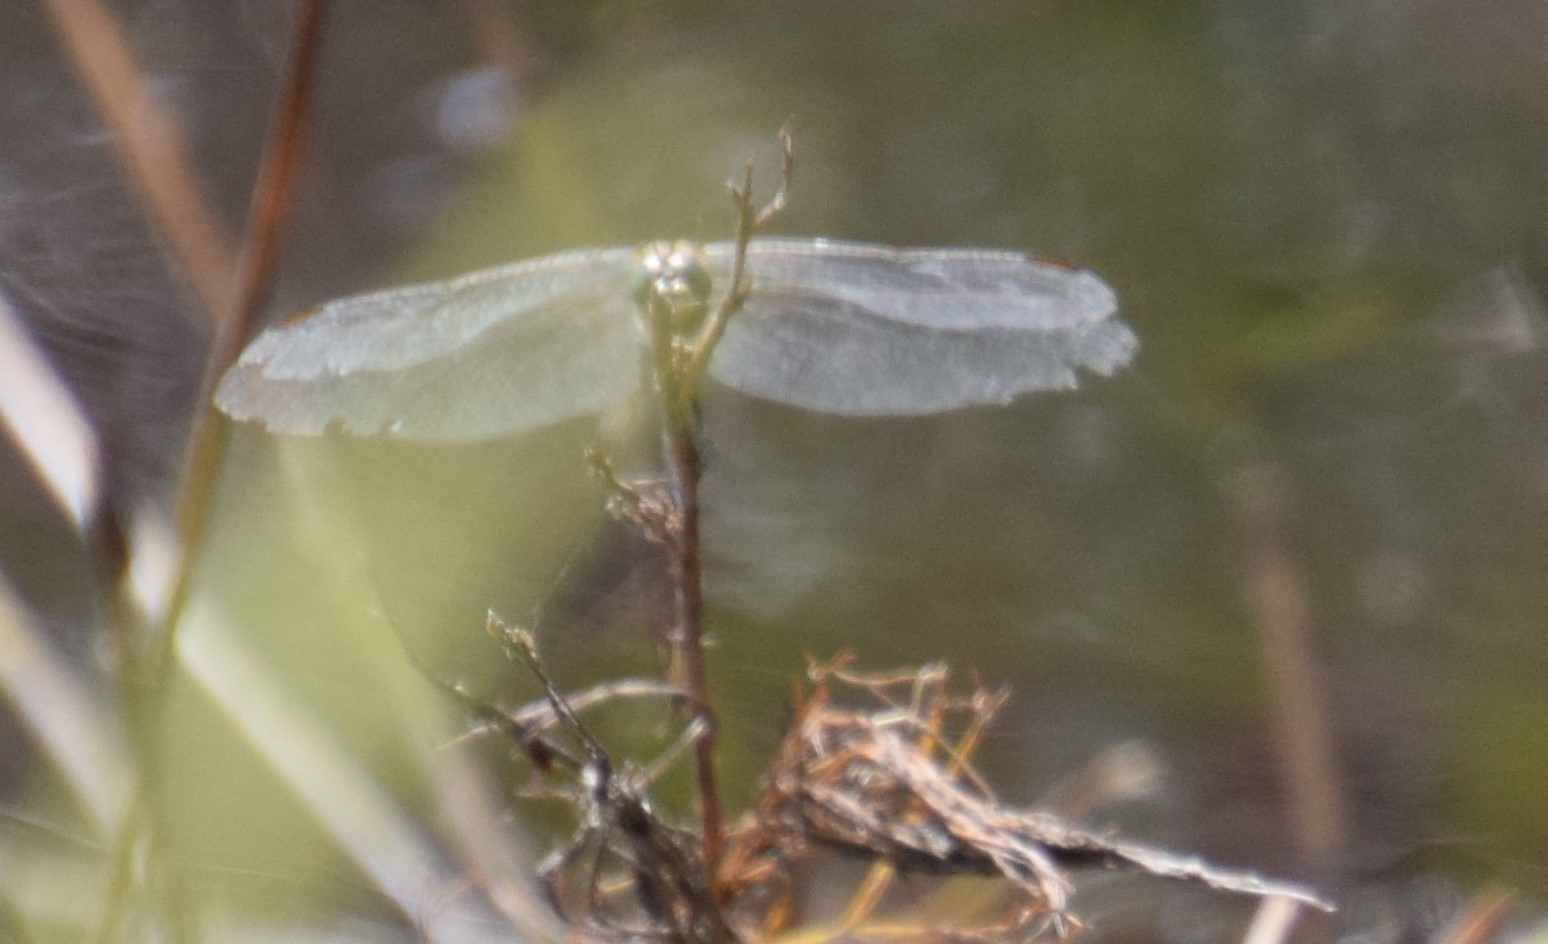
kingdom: Animalia
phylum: Arthropoda
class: Insecta
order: Odonata
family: Libellulidae
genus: Orthetrum
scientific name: Orthetrum sabina
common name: Slender skimmer
